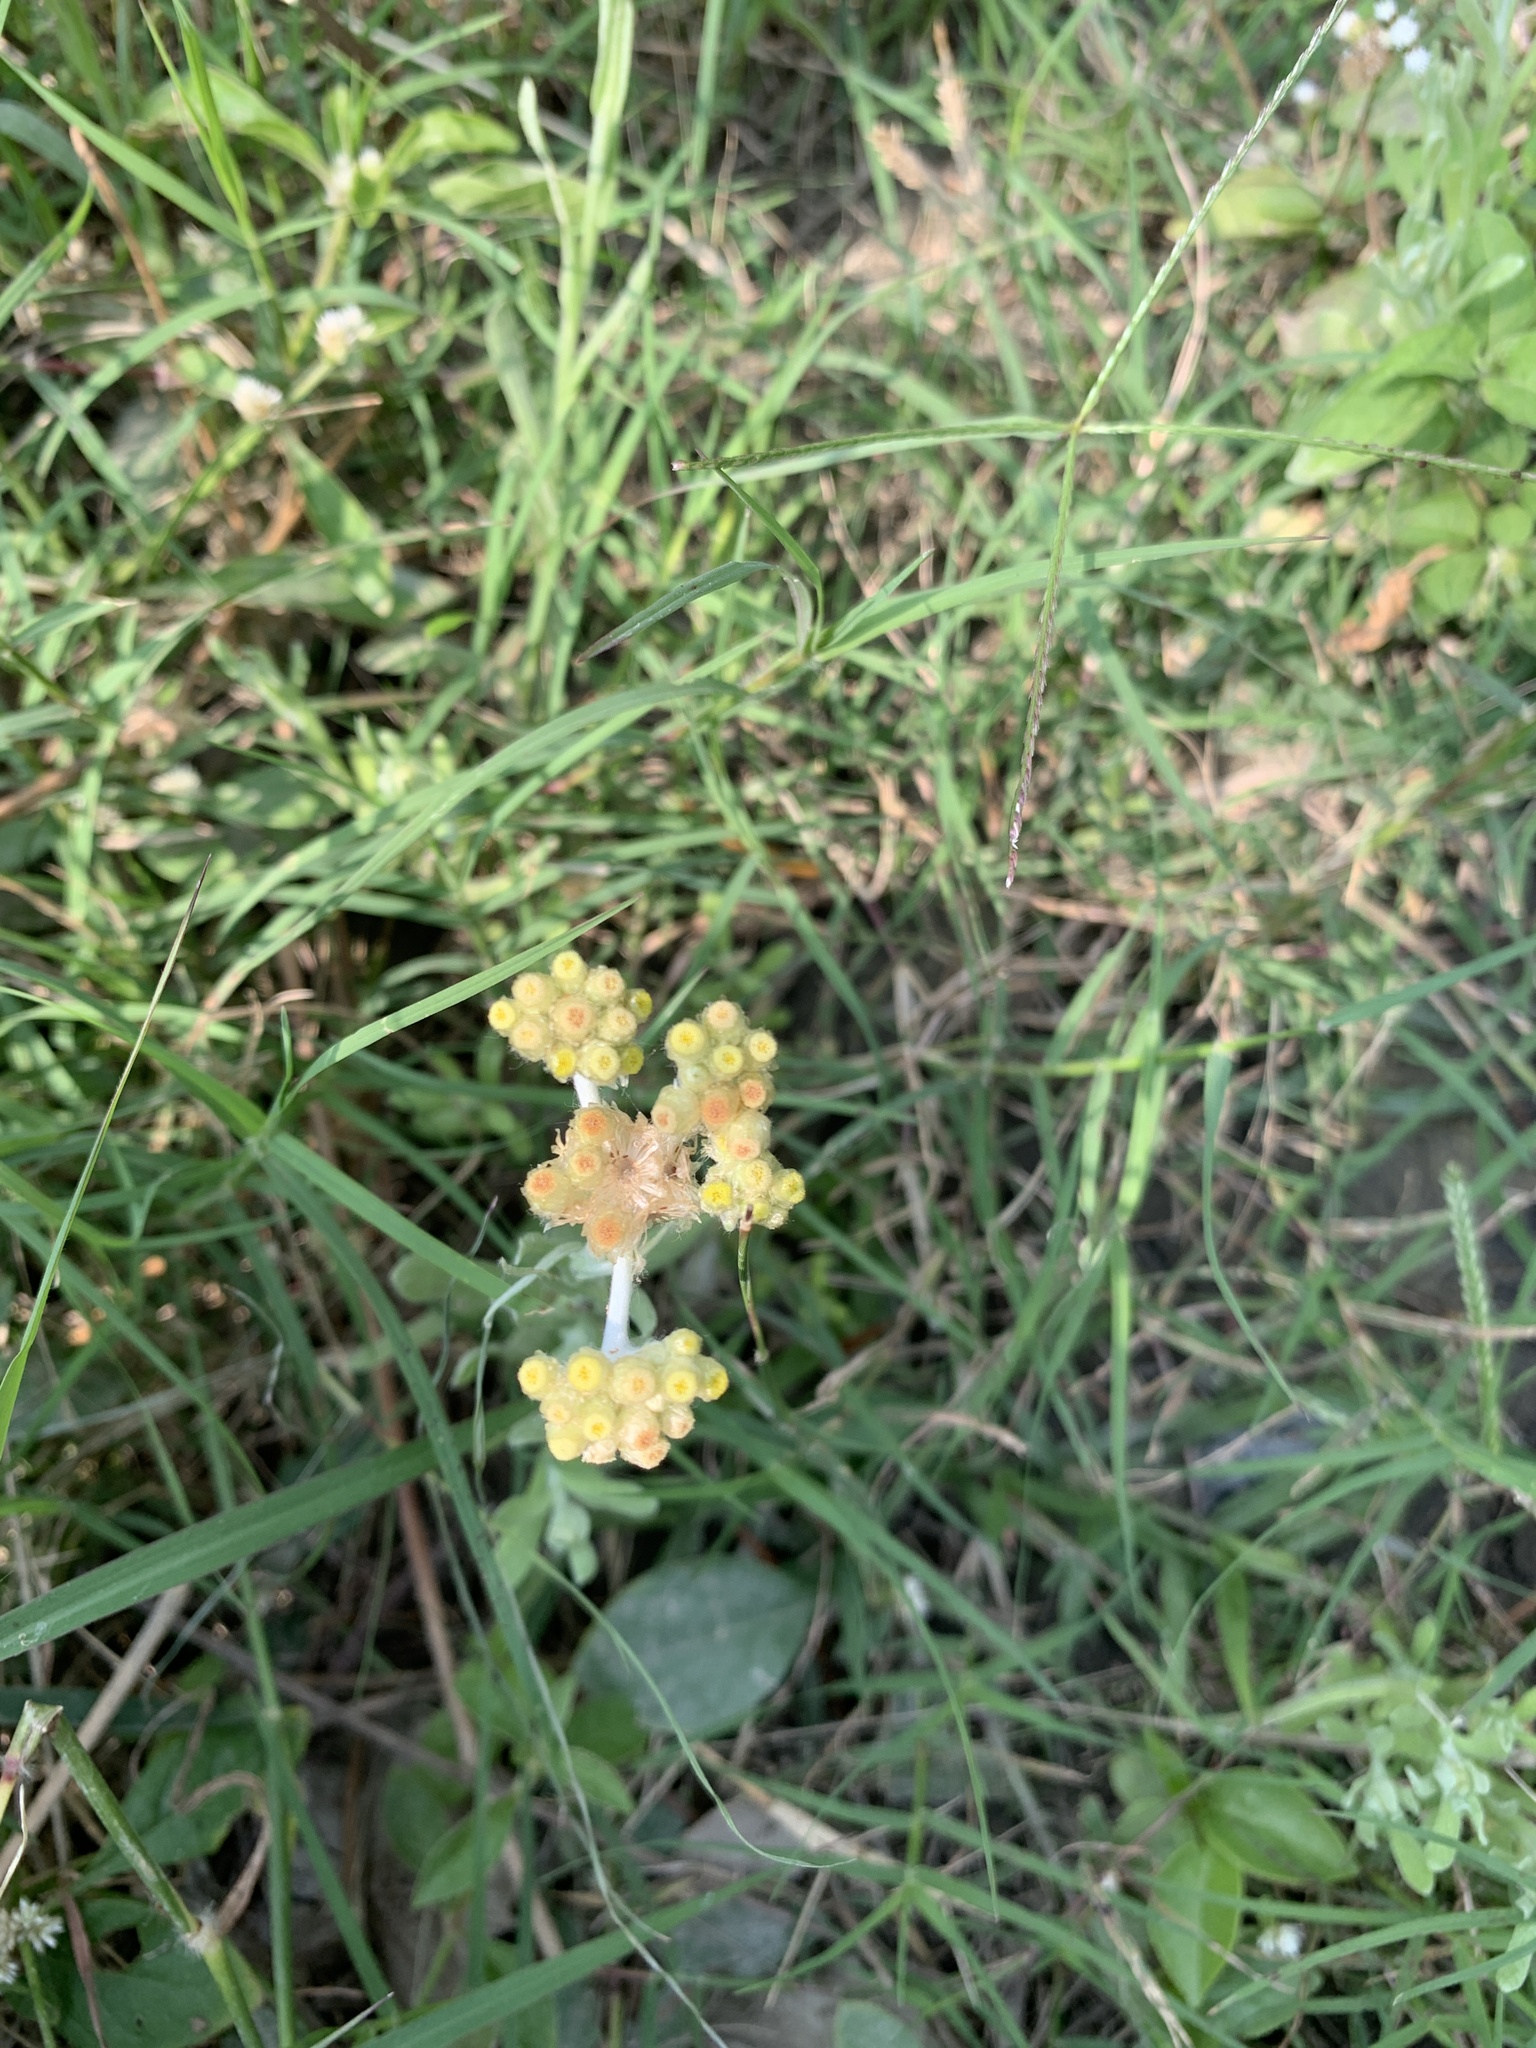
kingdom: Plantae
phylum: Tracheophyta
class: Magnoliopsida
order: Asterales
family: Asteraceae
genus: Pseudognaphalium
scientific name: Pseudognaphalium affine
